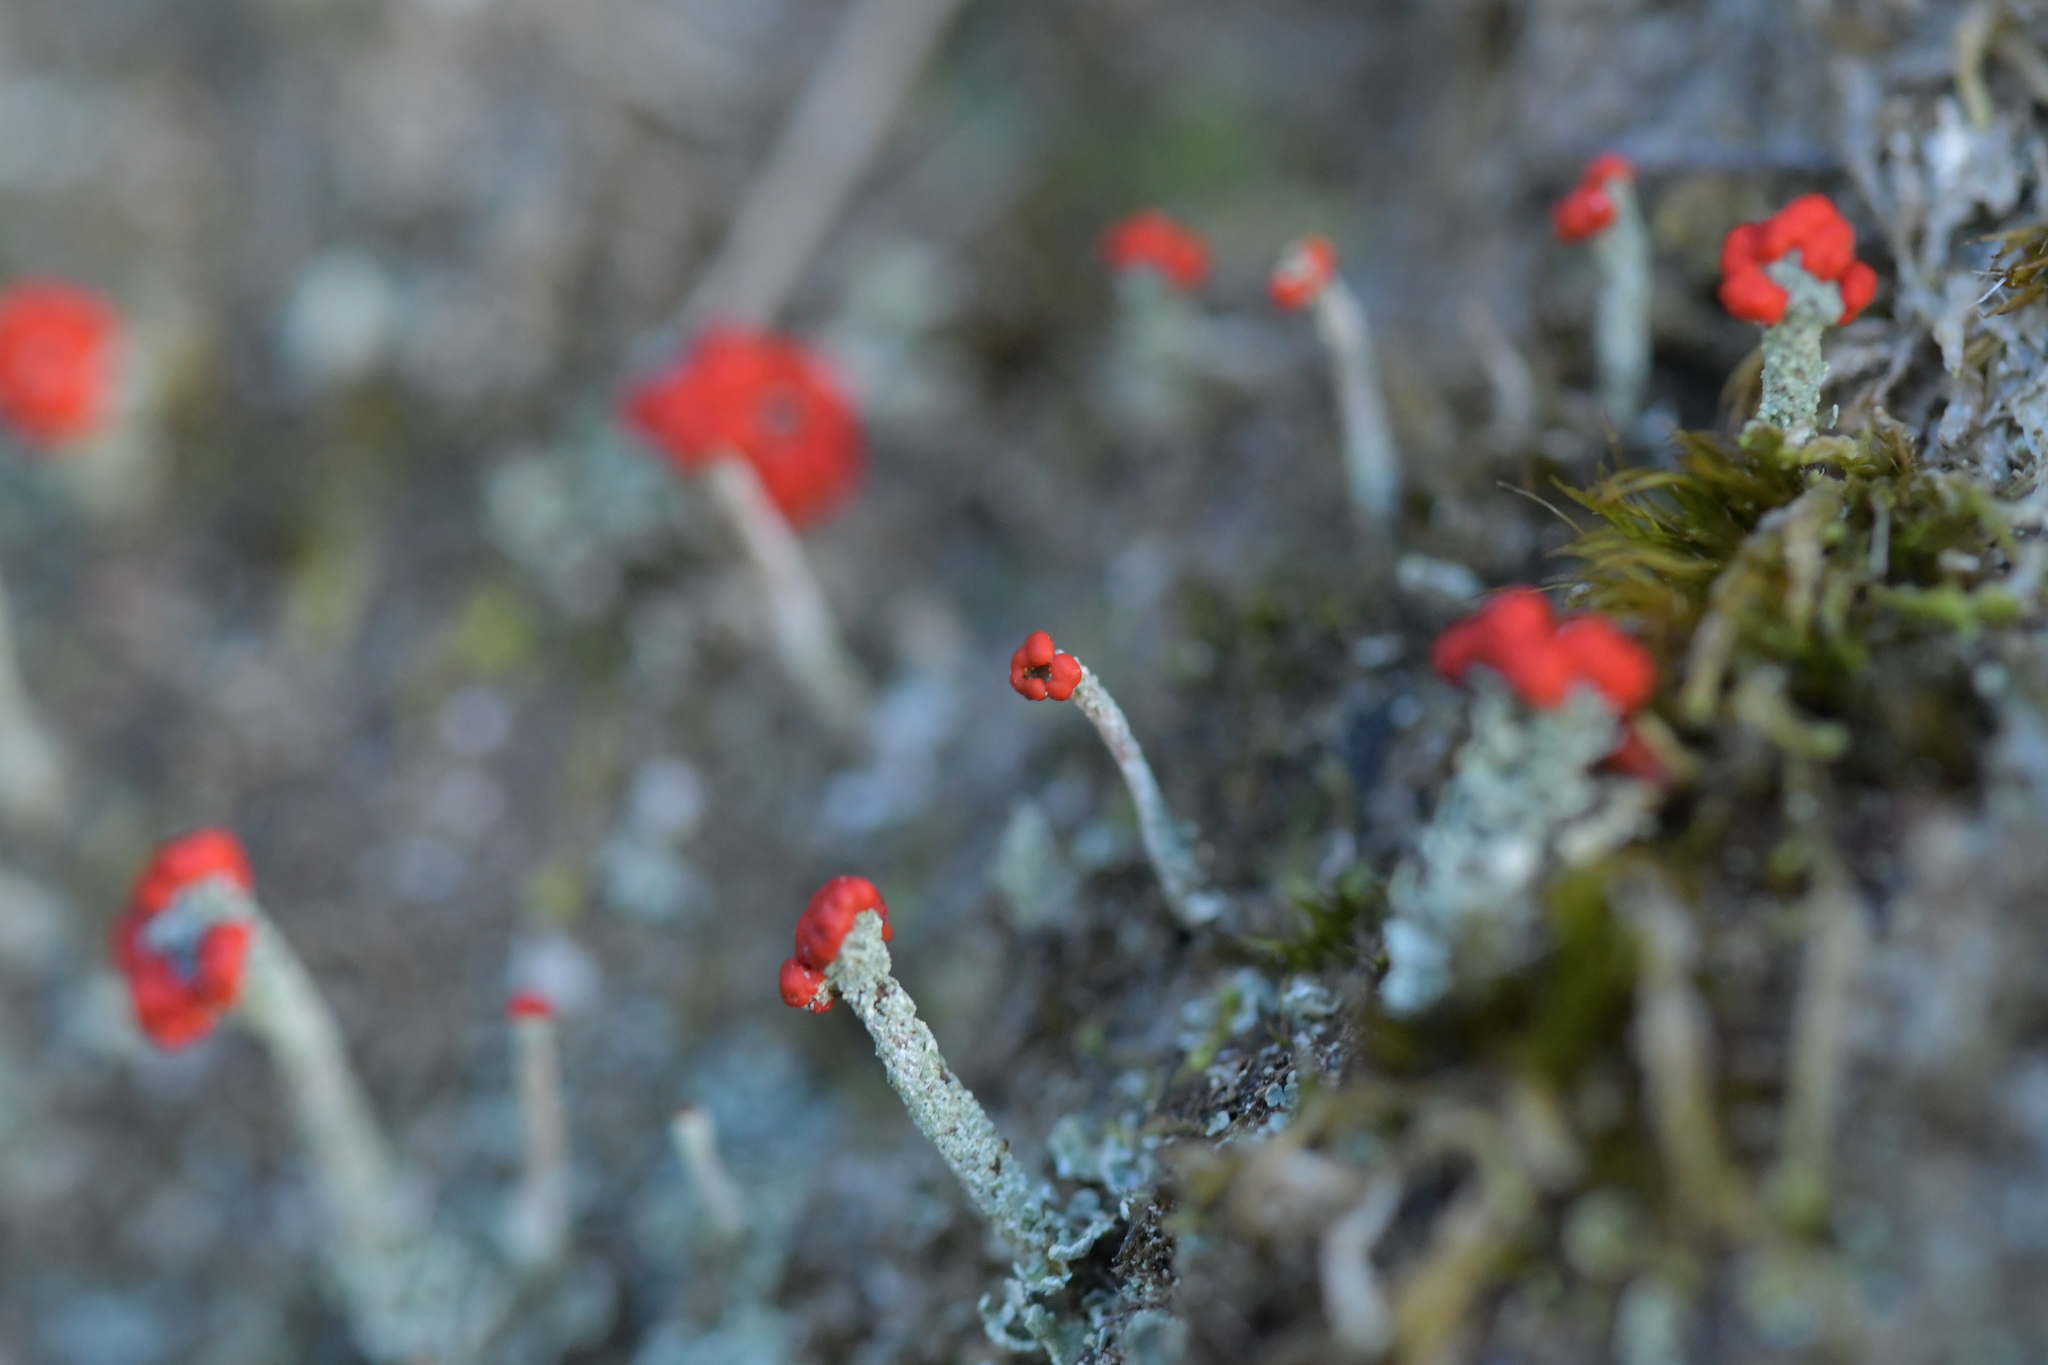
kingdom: Fungi
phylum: Ascomycota
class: Lecanoromycetes
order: Lecanorales
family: Cladoniaceae
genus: Cladonia
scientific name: Cladonia cristatella
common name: British soldier lichen
